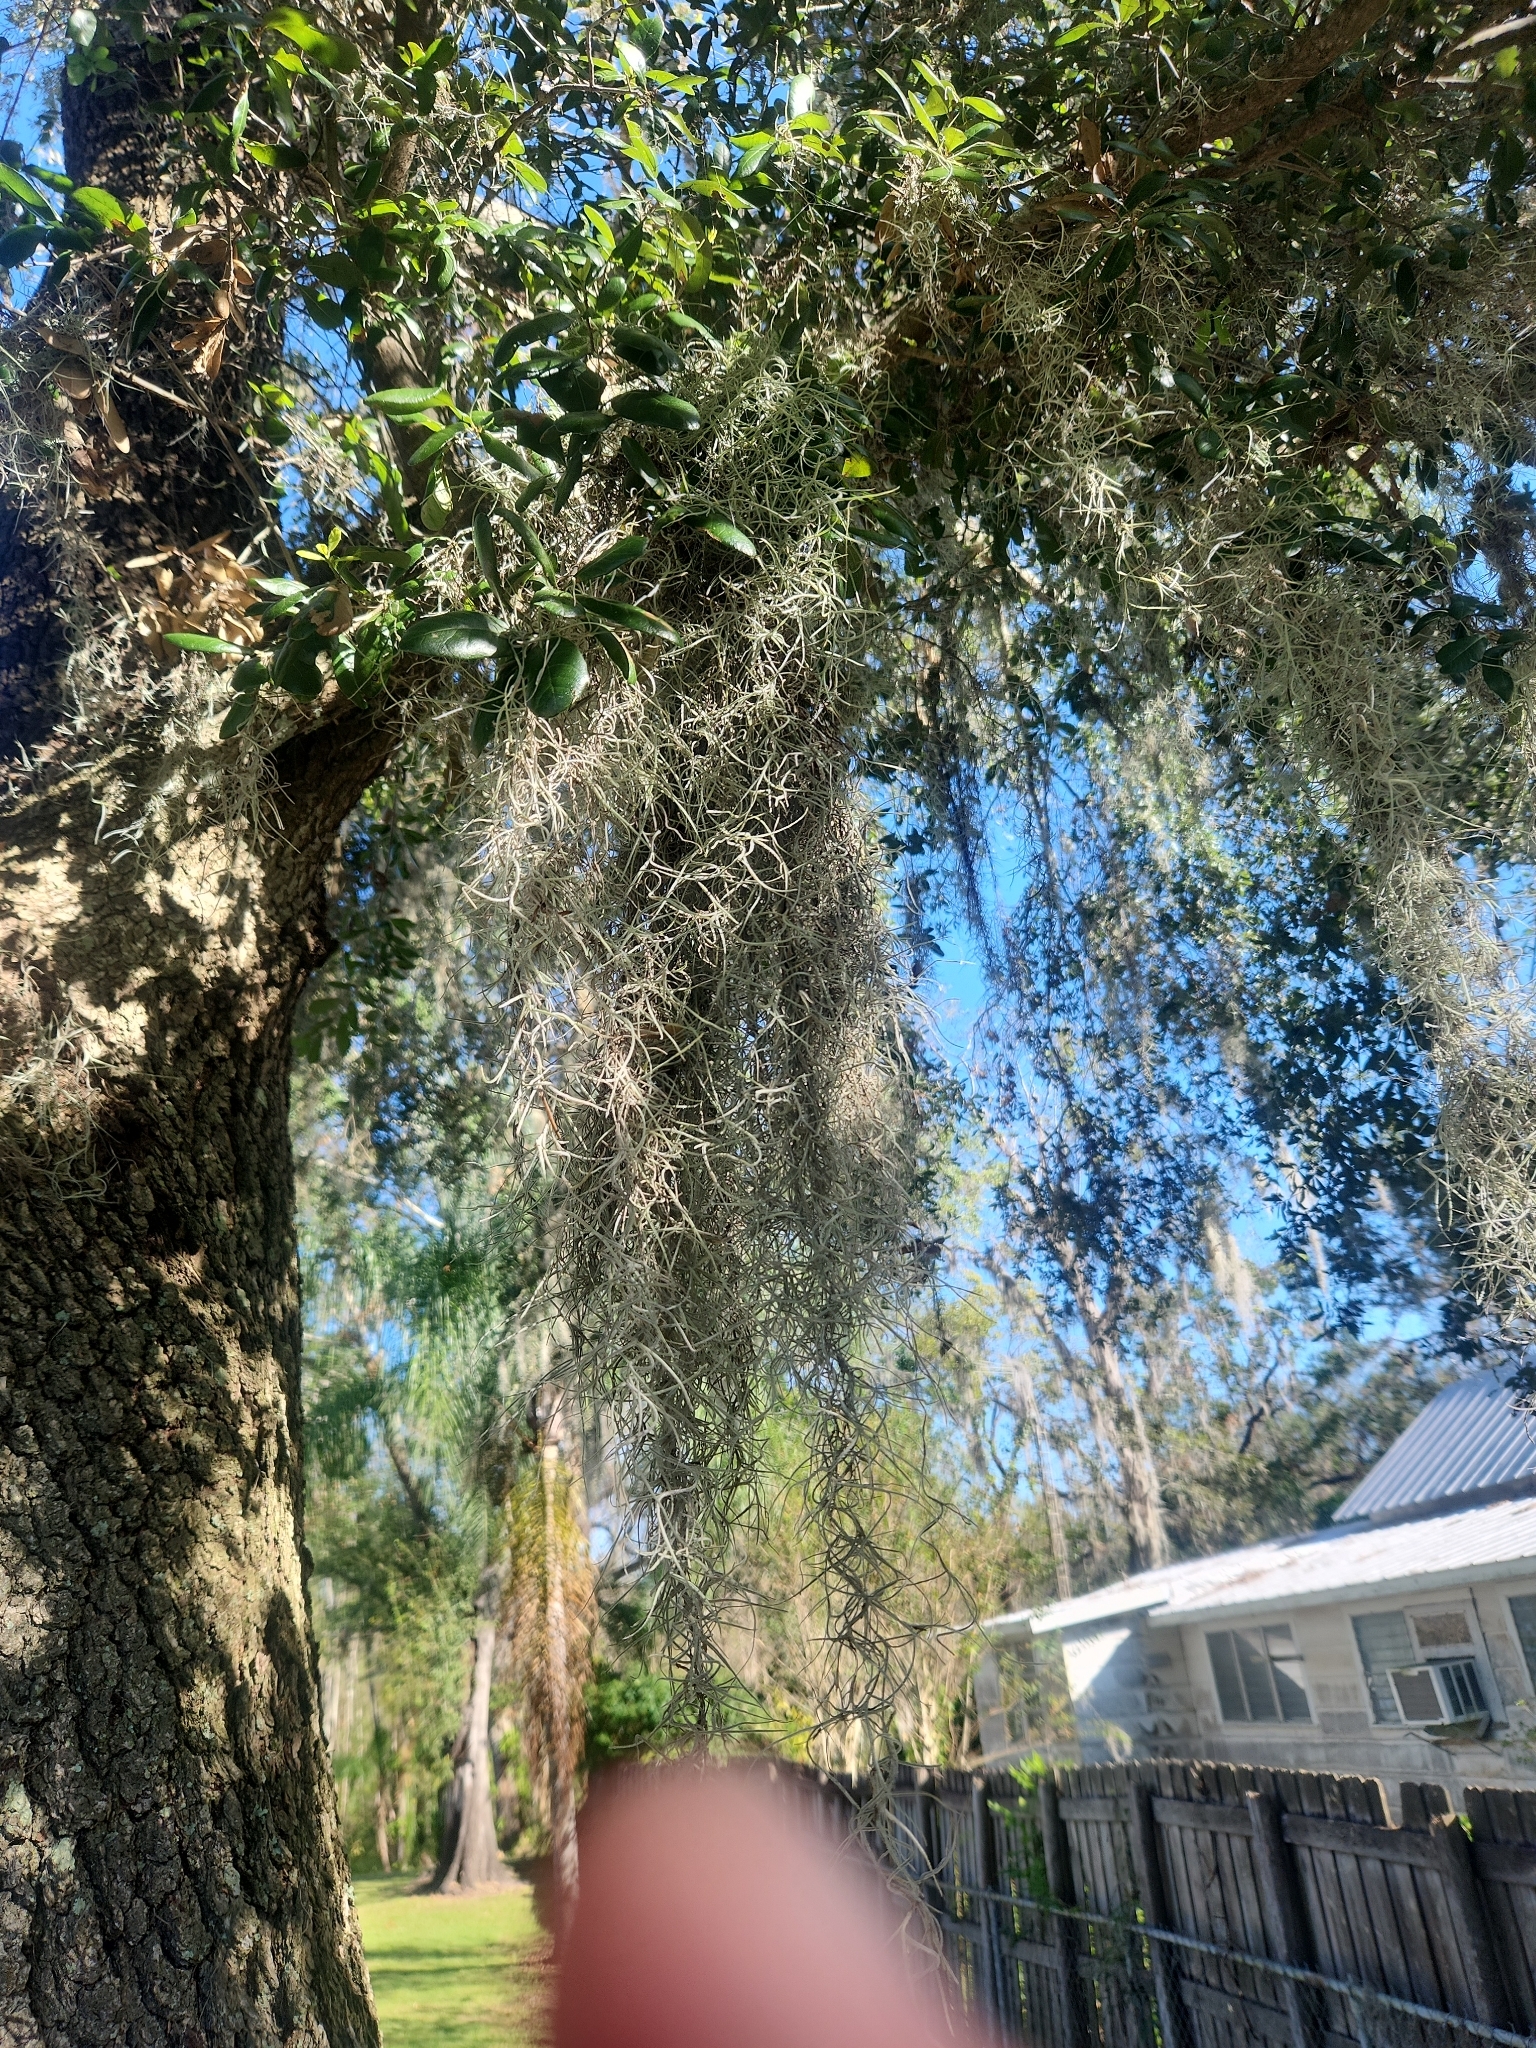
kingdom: Plantae
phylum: Tracheophyta
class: Liliopsida
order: Poales
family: Bromeliaceae
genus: Tillandsia
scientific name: Tillandsia usneoides
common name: Spanish moss
